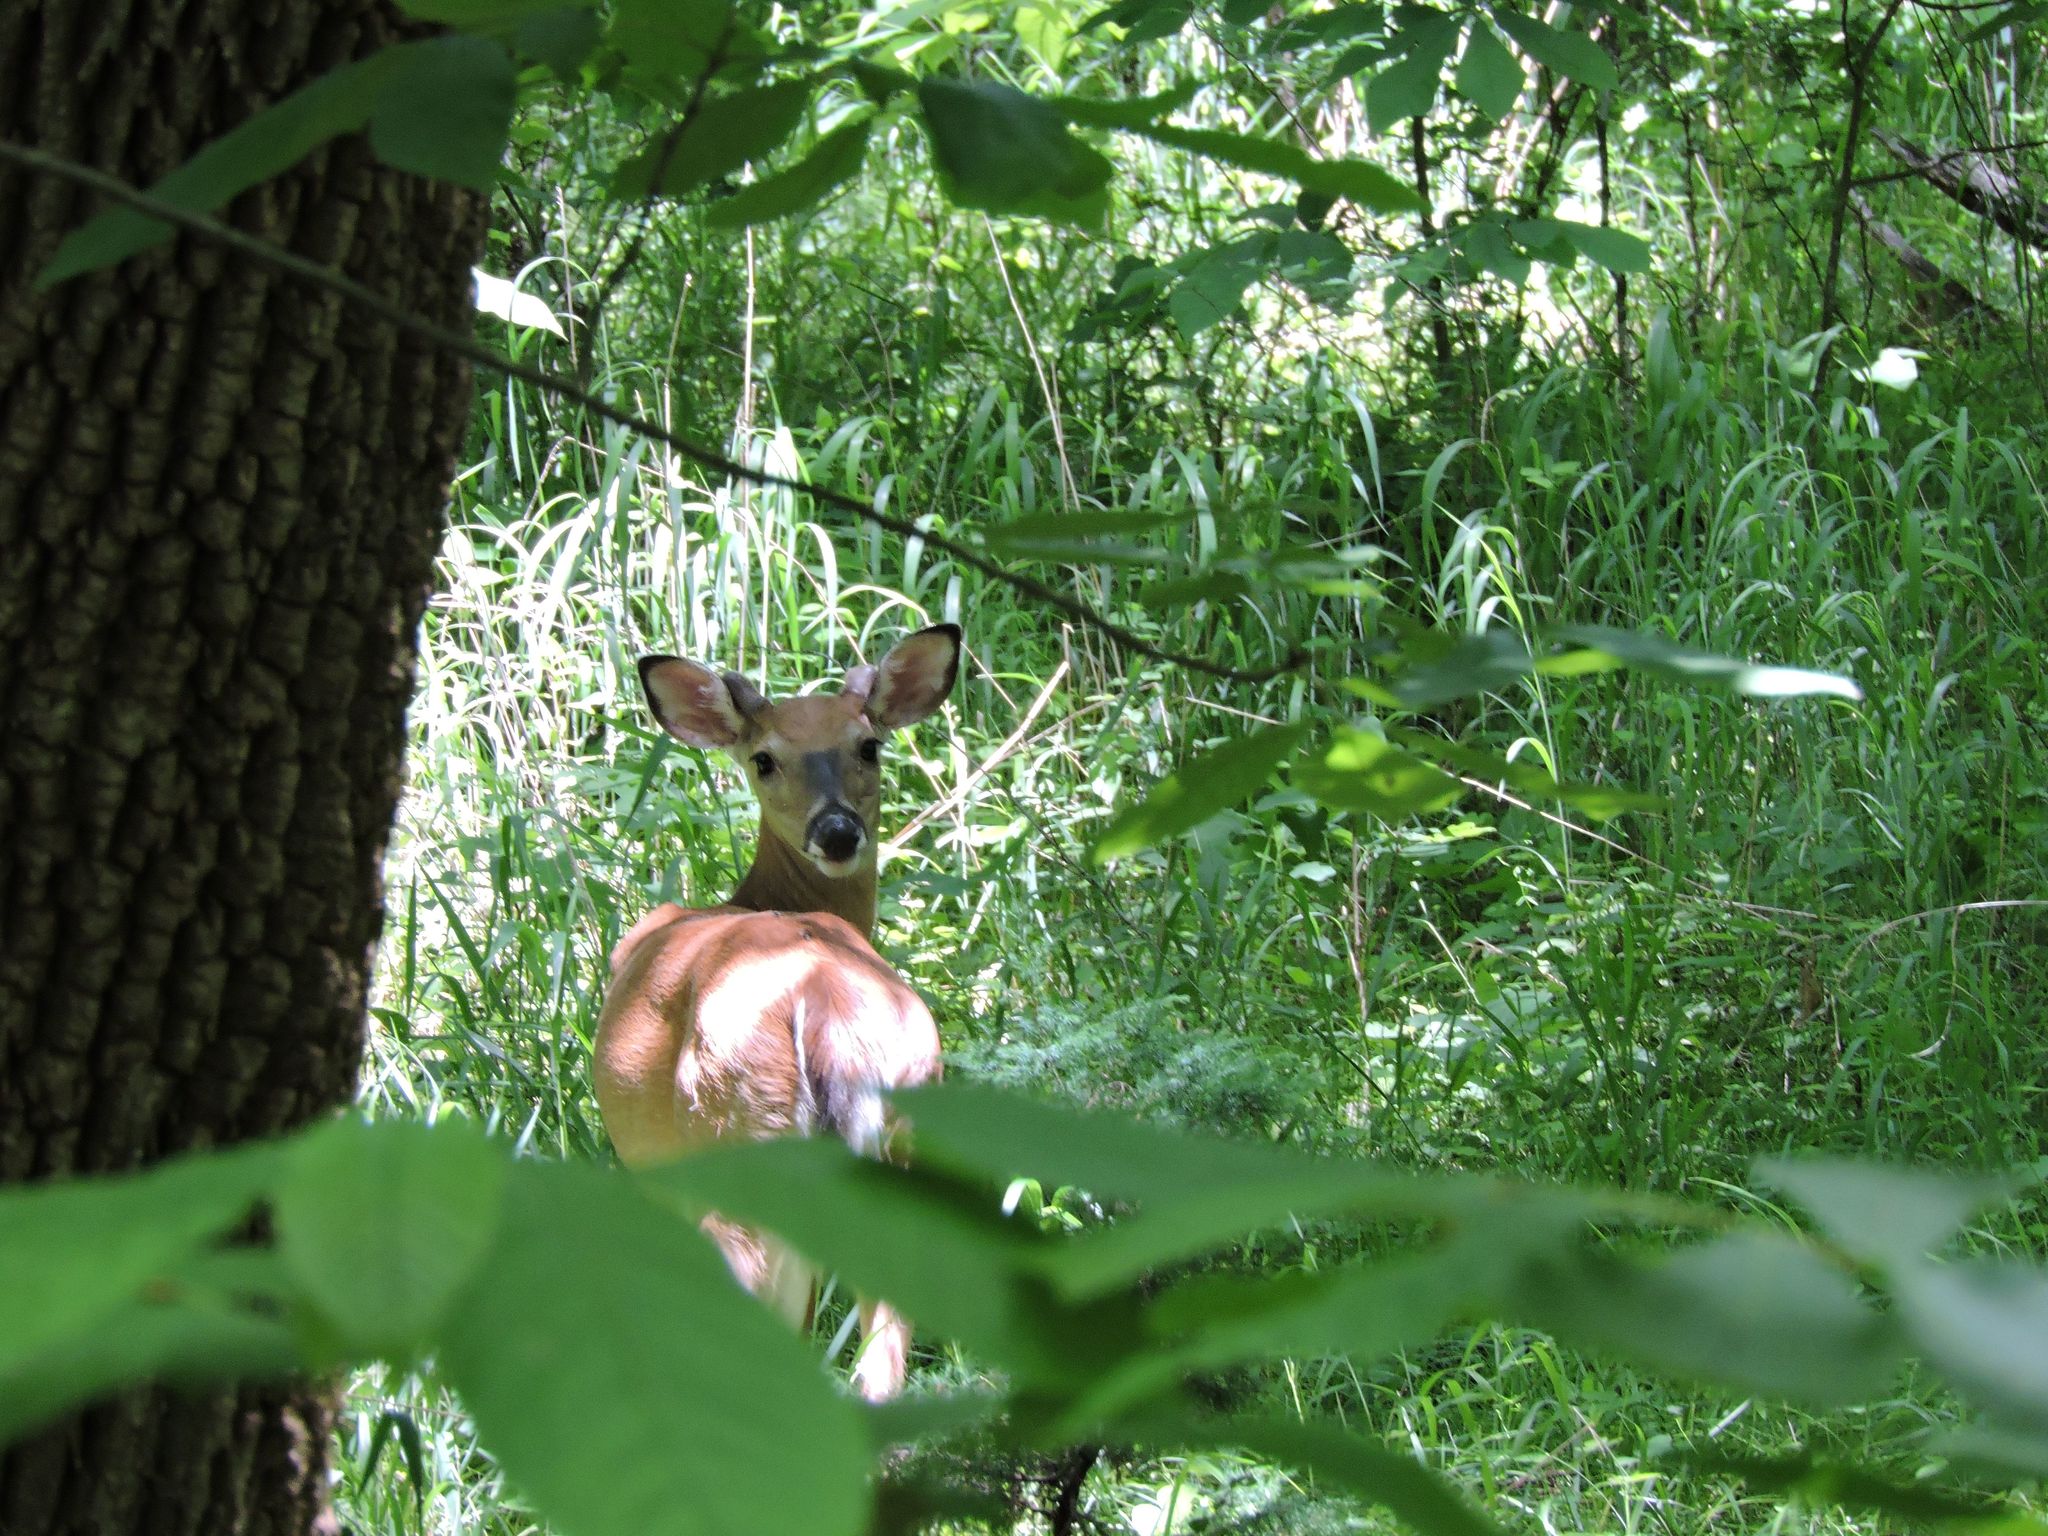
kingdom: Animalia
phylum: Chordata
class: Mammalia
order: Artiodactyla
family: Cervidae
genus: Odocoileus
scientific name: Odocoileus virginianus
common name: White-tailed deer
